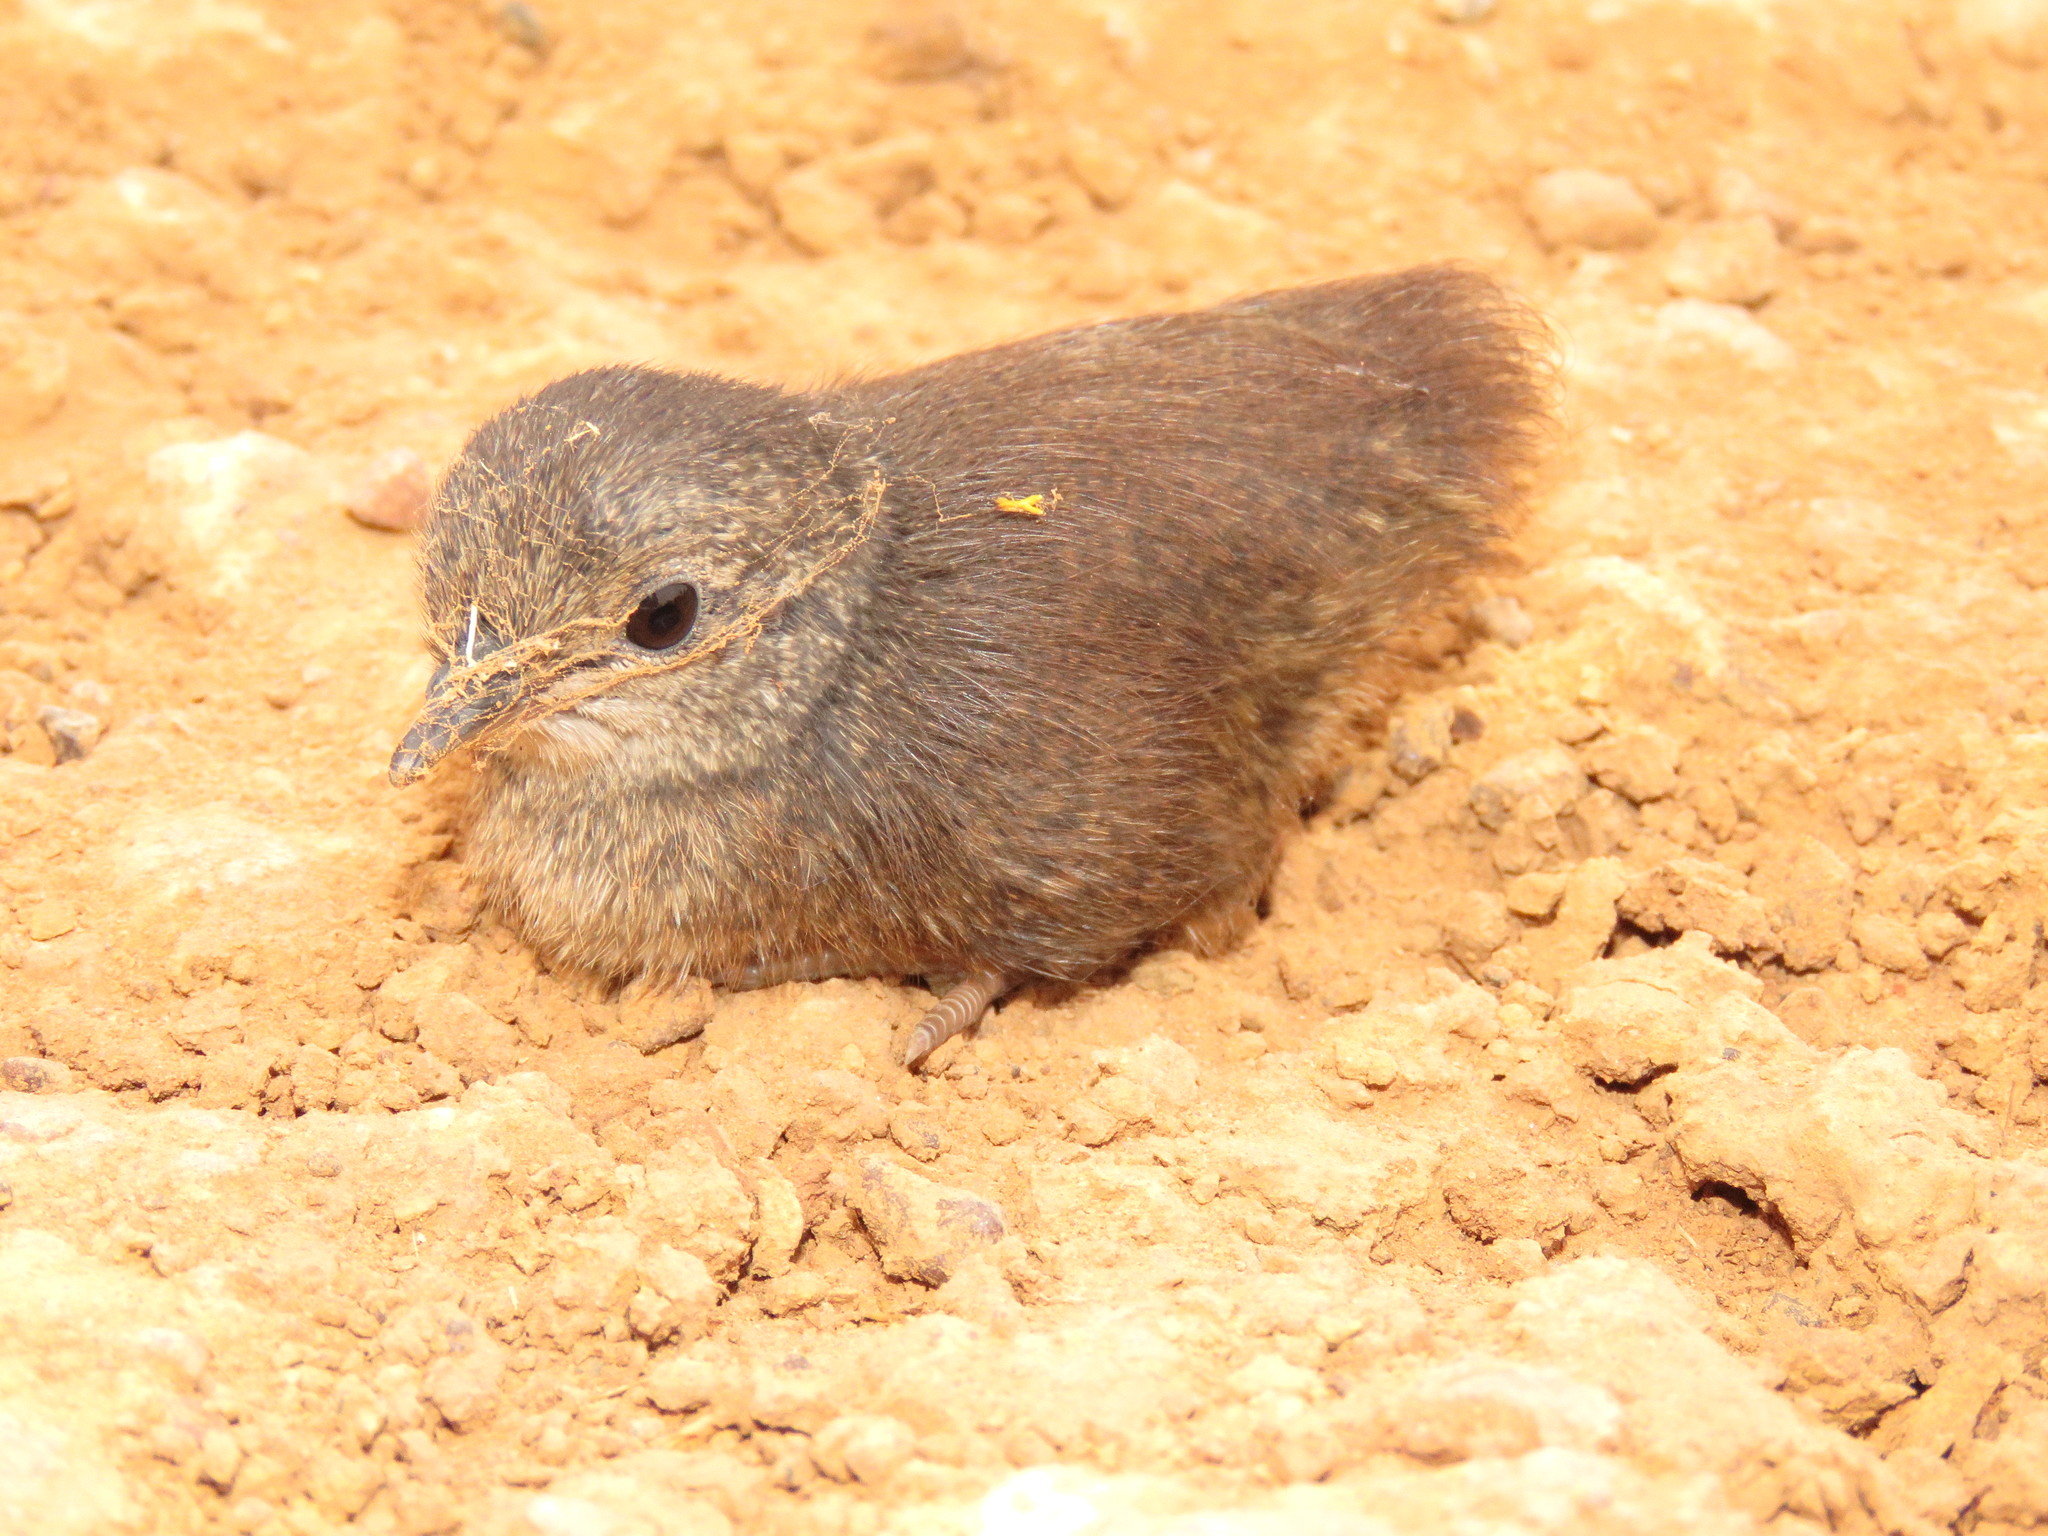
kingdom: Animalia
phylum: Chordata
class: Aves
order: Tinamiformes
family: Tinamidae
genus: Crypturellus
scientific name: Crypturellus parvirostris
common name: Small-billed tinamou
